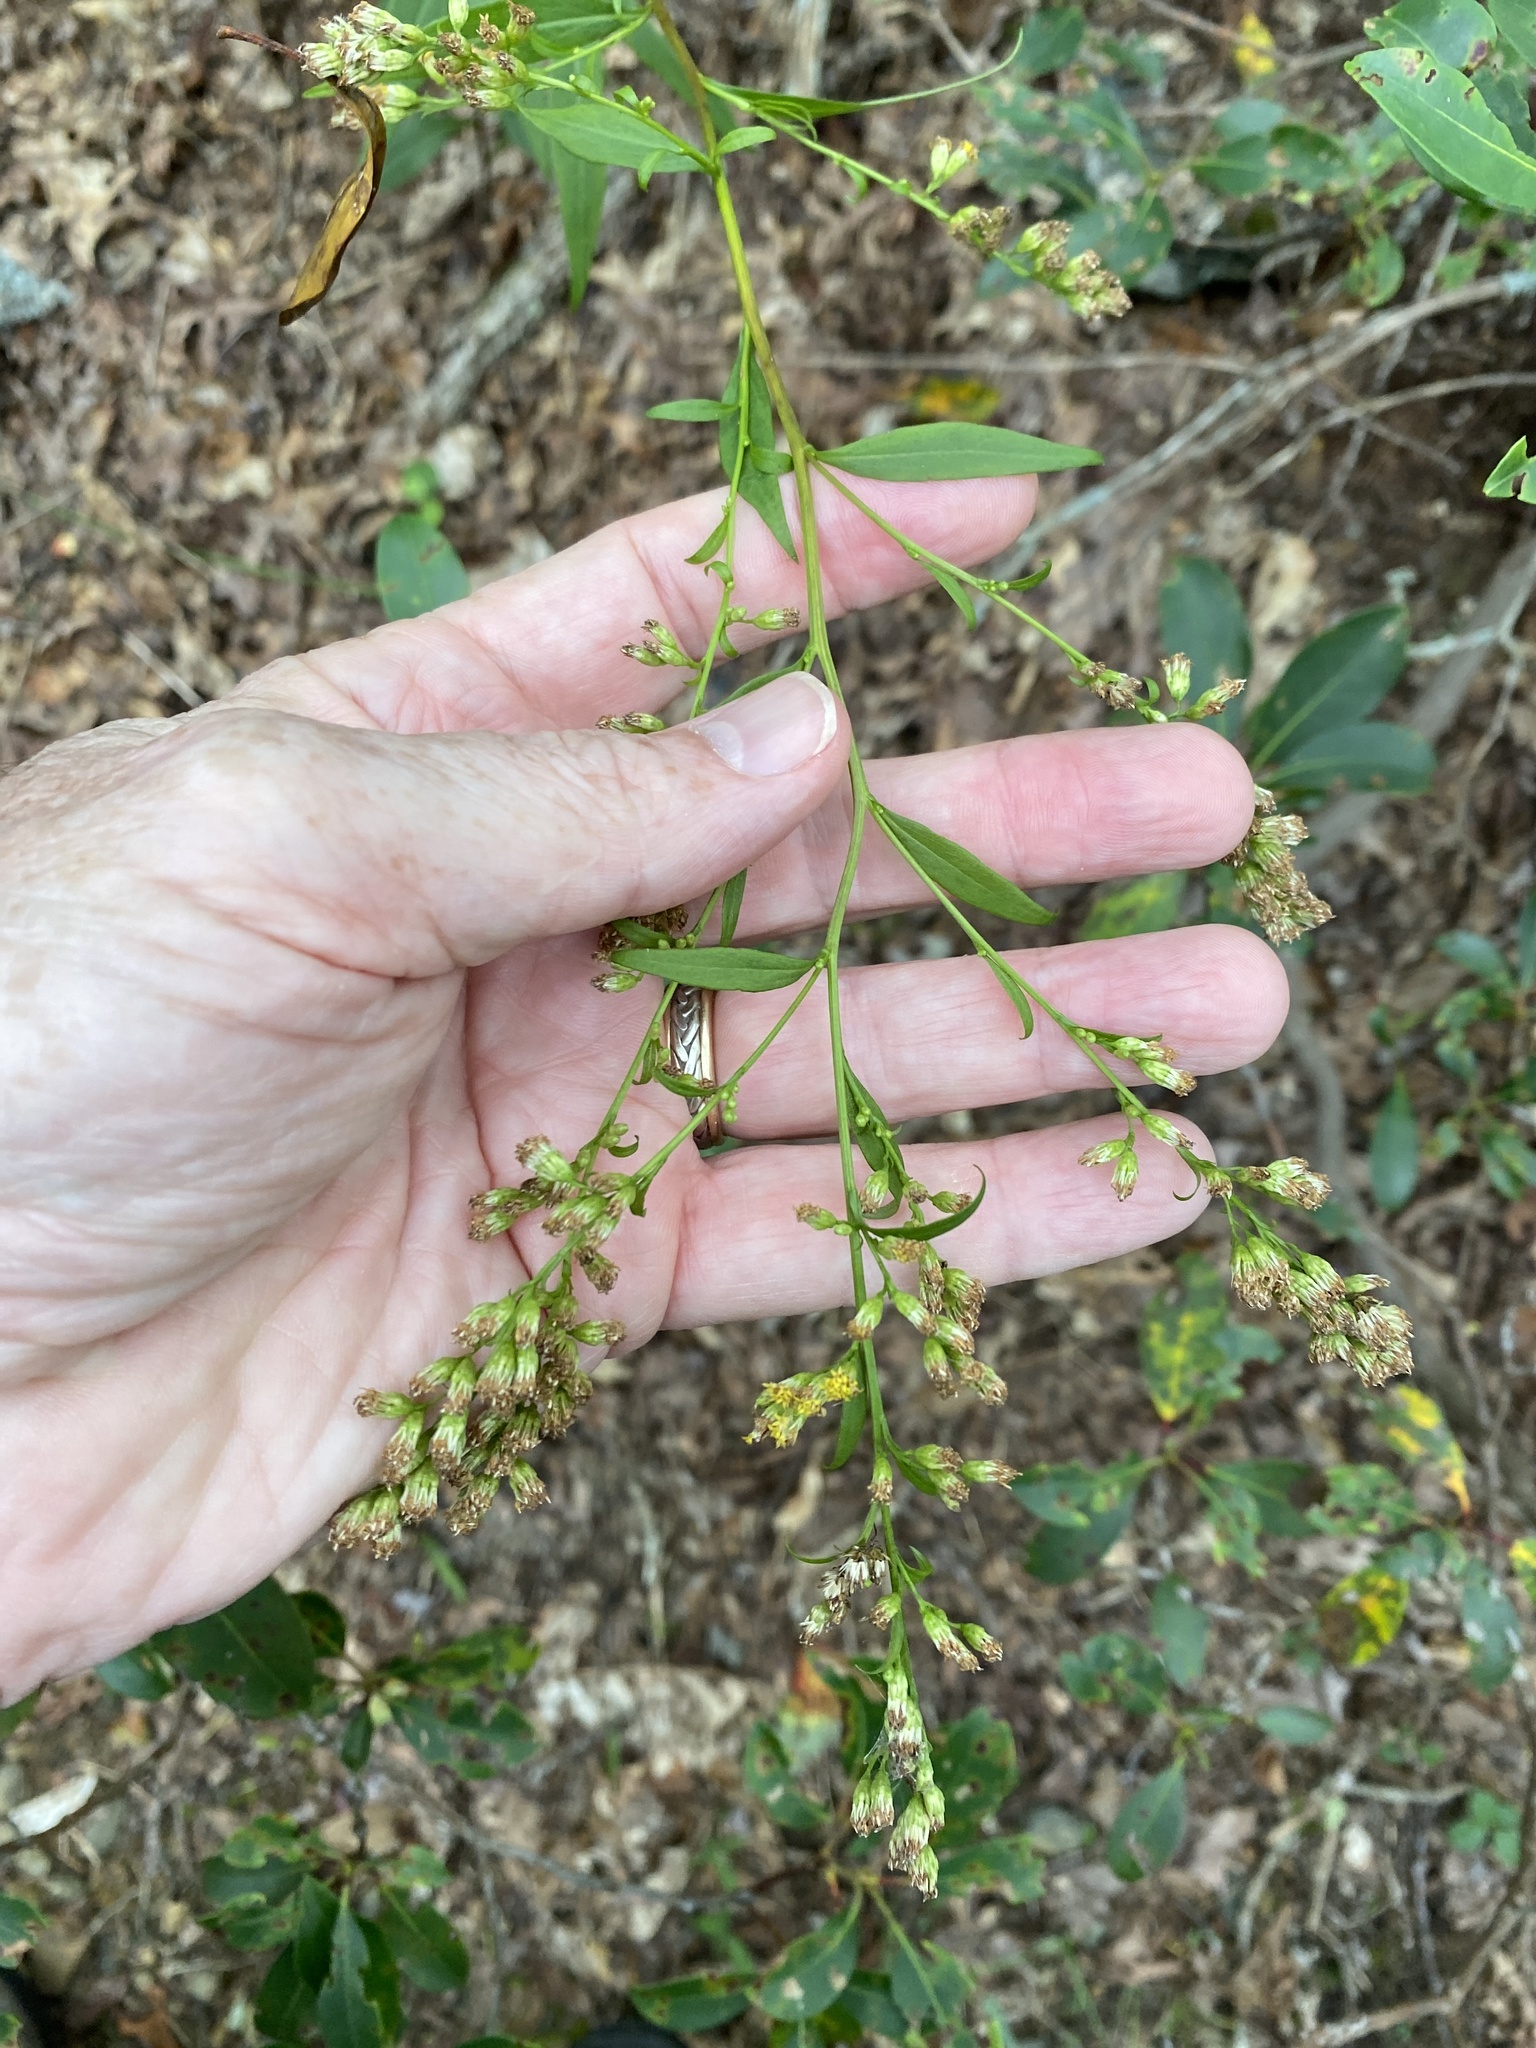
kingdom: Plantae
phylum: Tracheophyta
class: Magnoliopsida
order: Asterales
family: Asteraceae
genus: Solidago
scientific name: Solidago arguta
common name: Atlantic goldenrod
